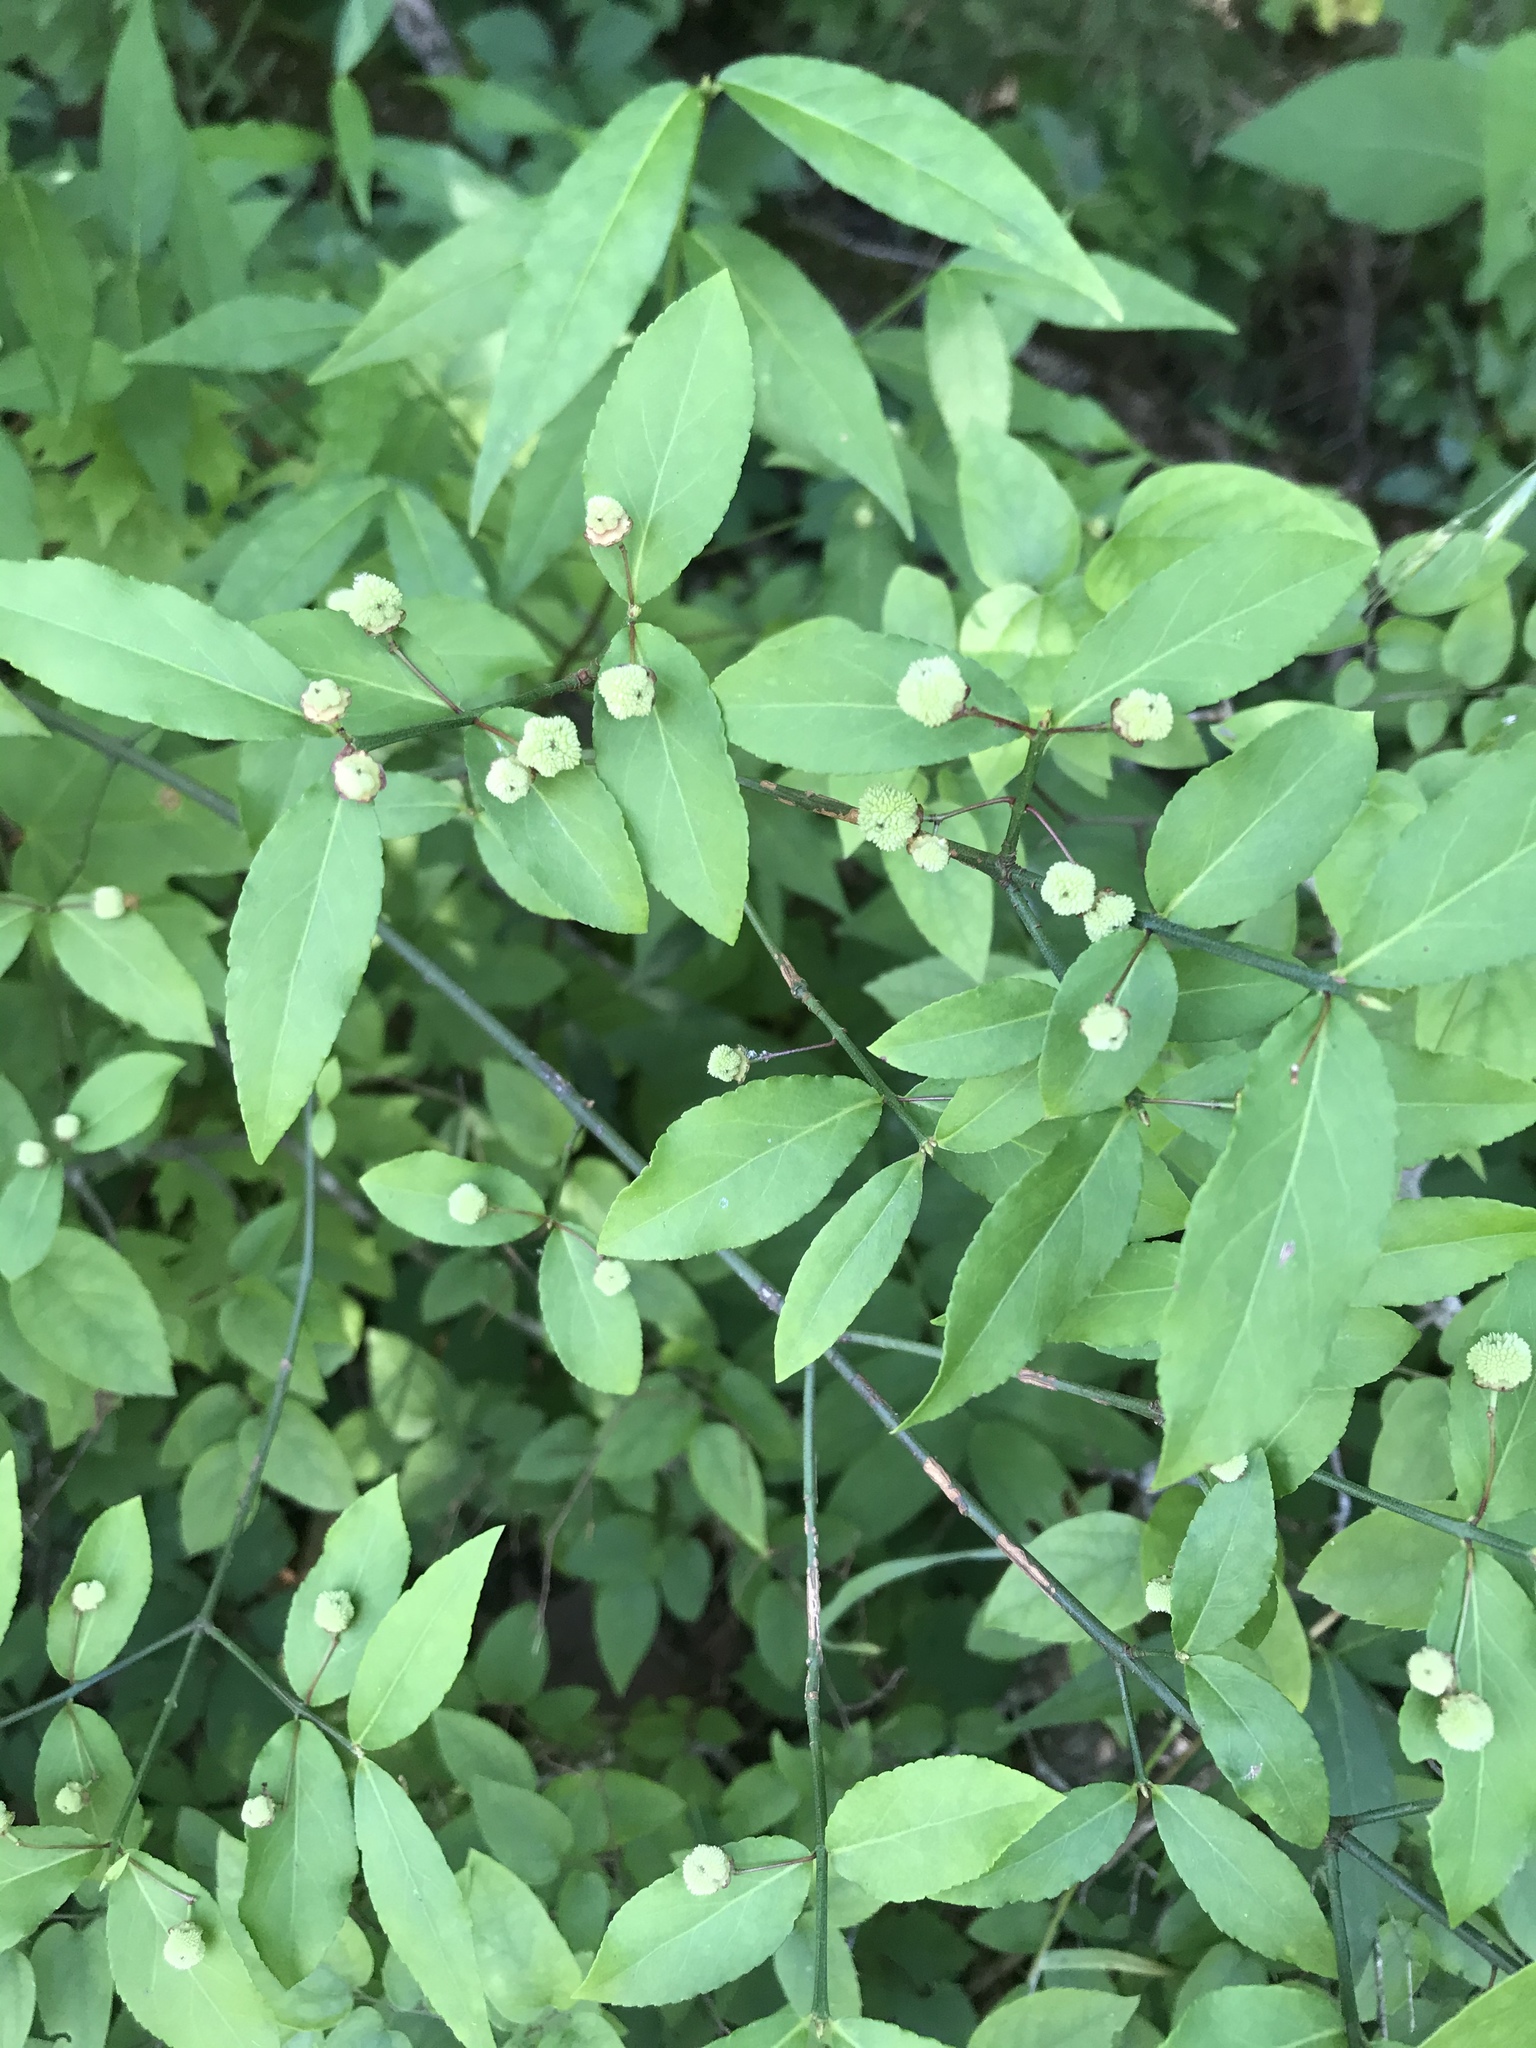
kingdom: Plantae
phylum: Tracheophyta
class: Magnoliopsida
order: Celastrales
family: Celastraceae
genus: Euonymus
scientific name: Euonymus americanus
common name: Bursting-heart
